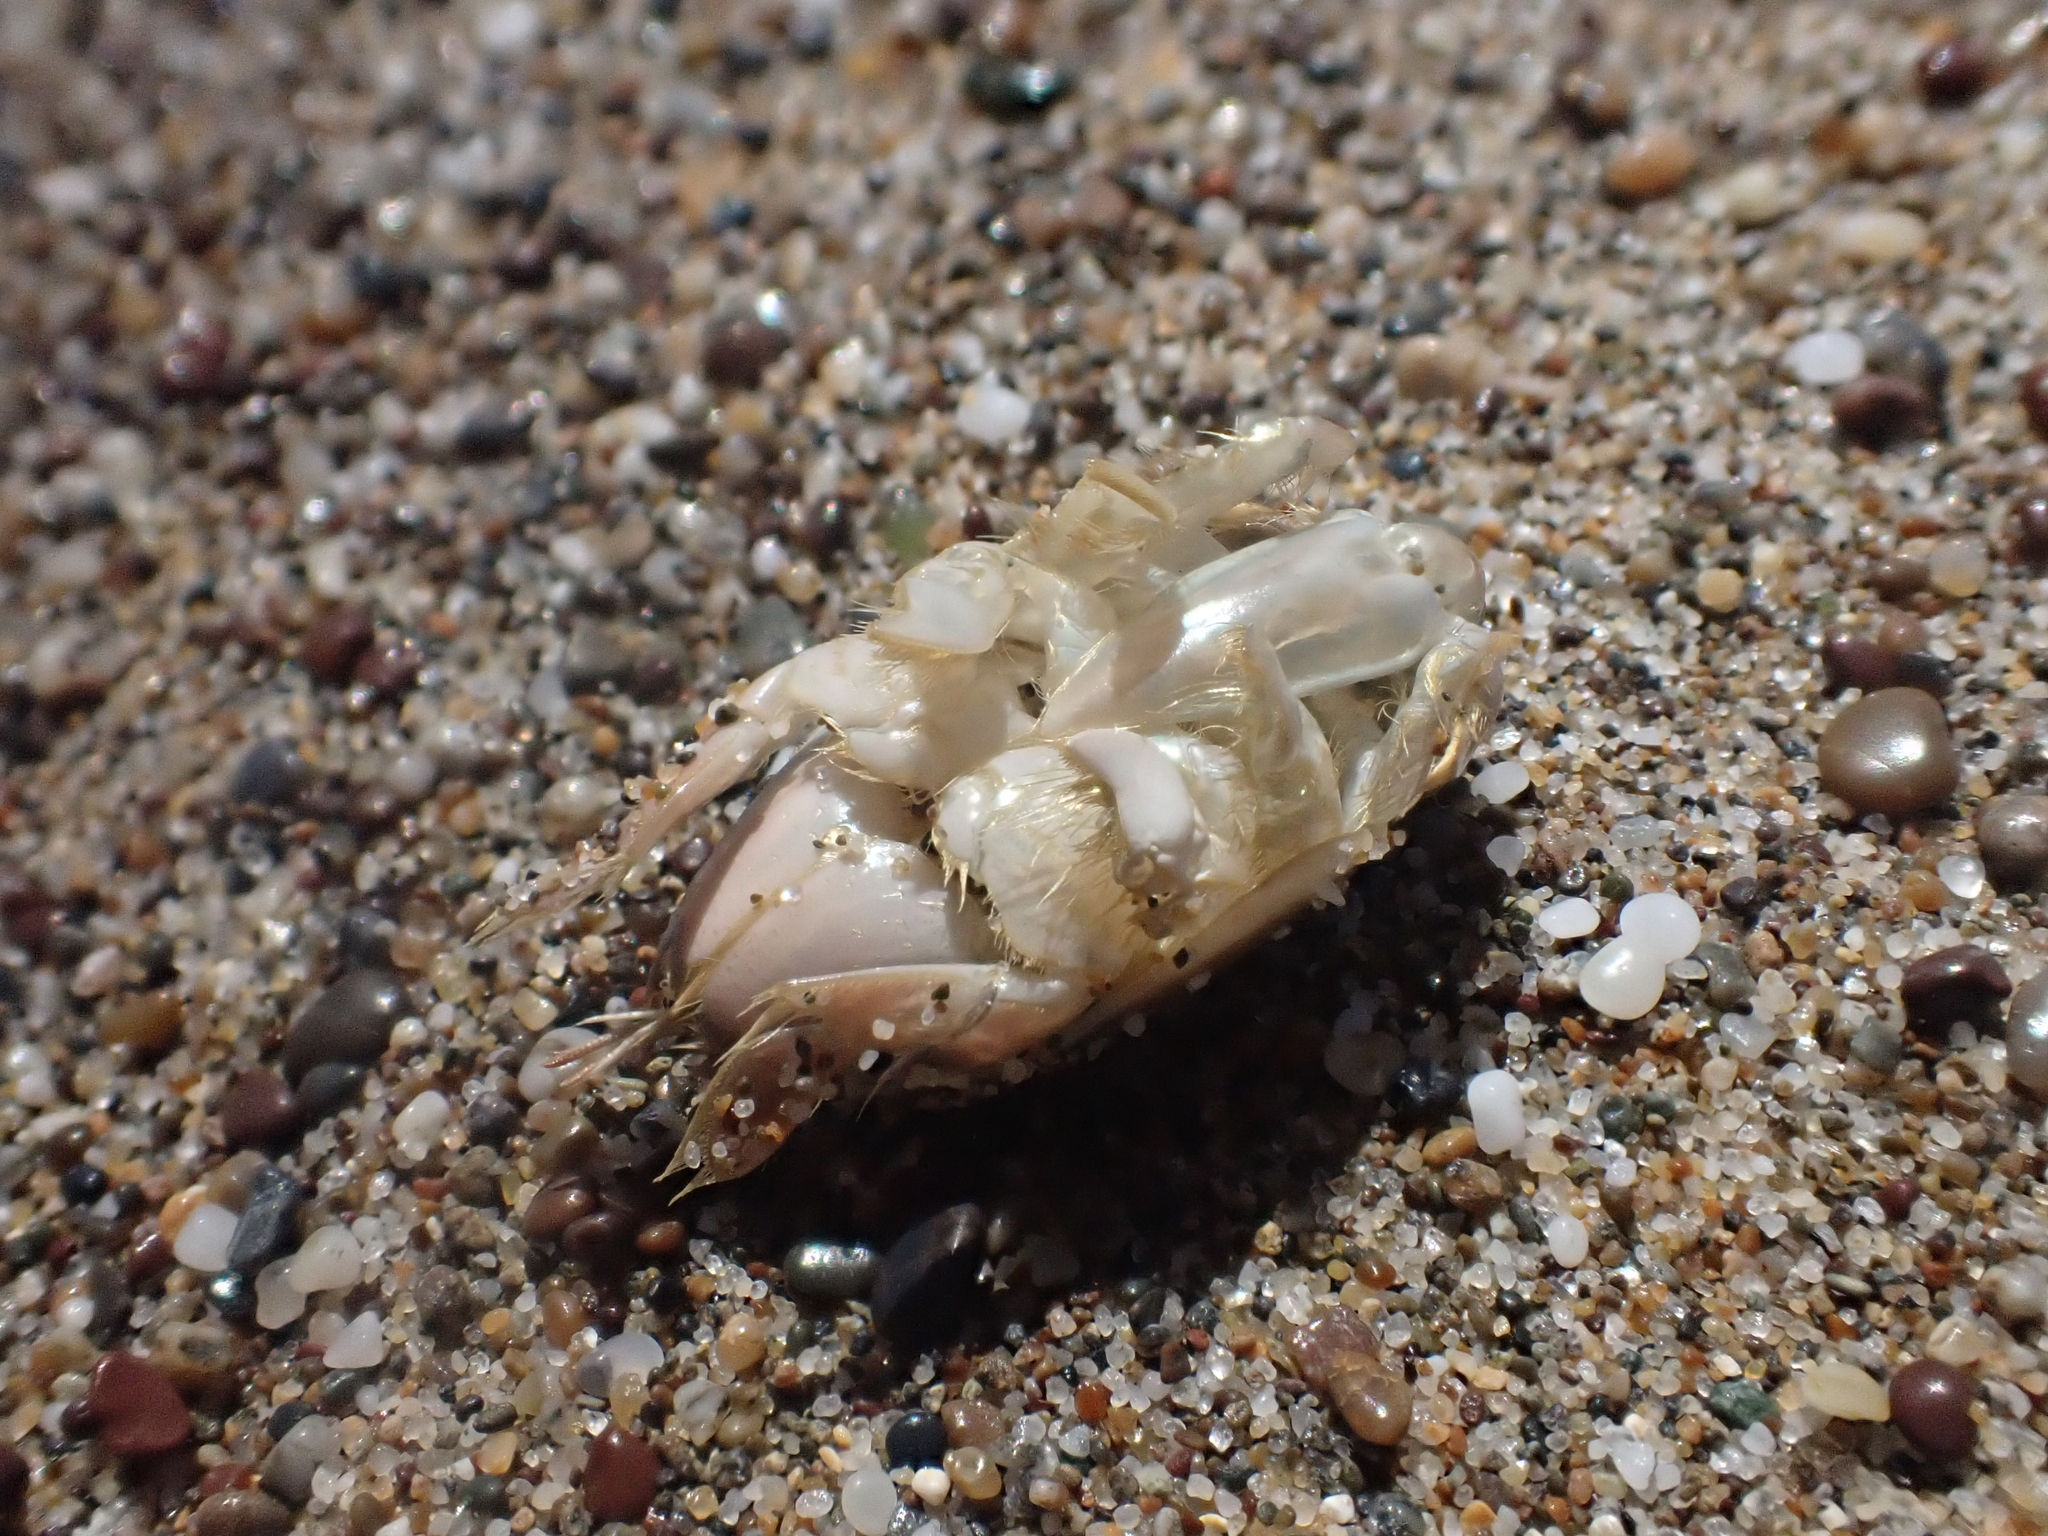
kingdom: Animalia
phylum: Arthropoda
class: Malacostraca
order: Decapoda
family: Hippidae
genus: Emerita
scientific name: Emerita analoga
